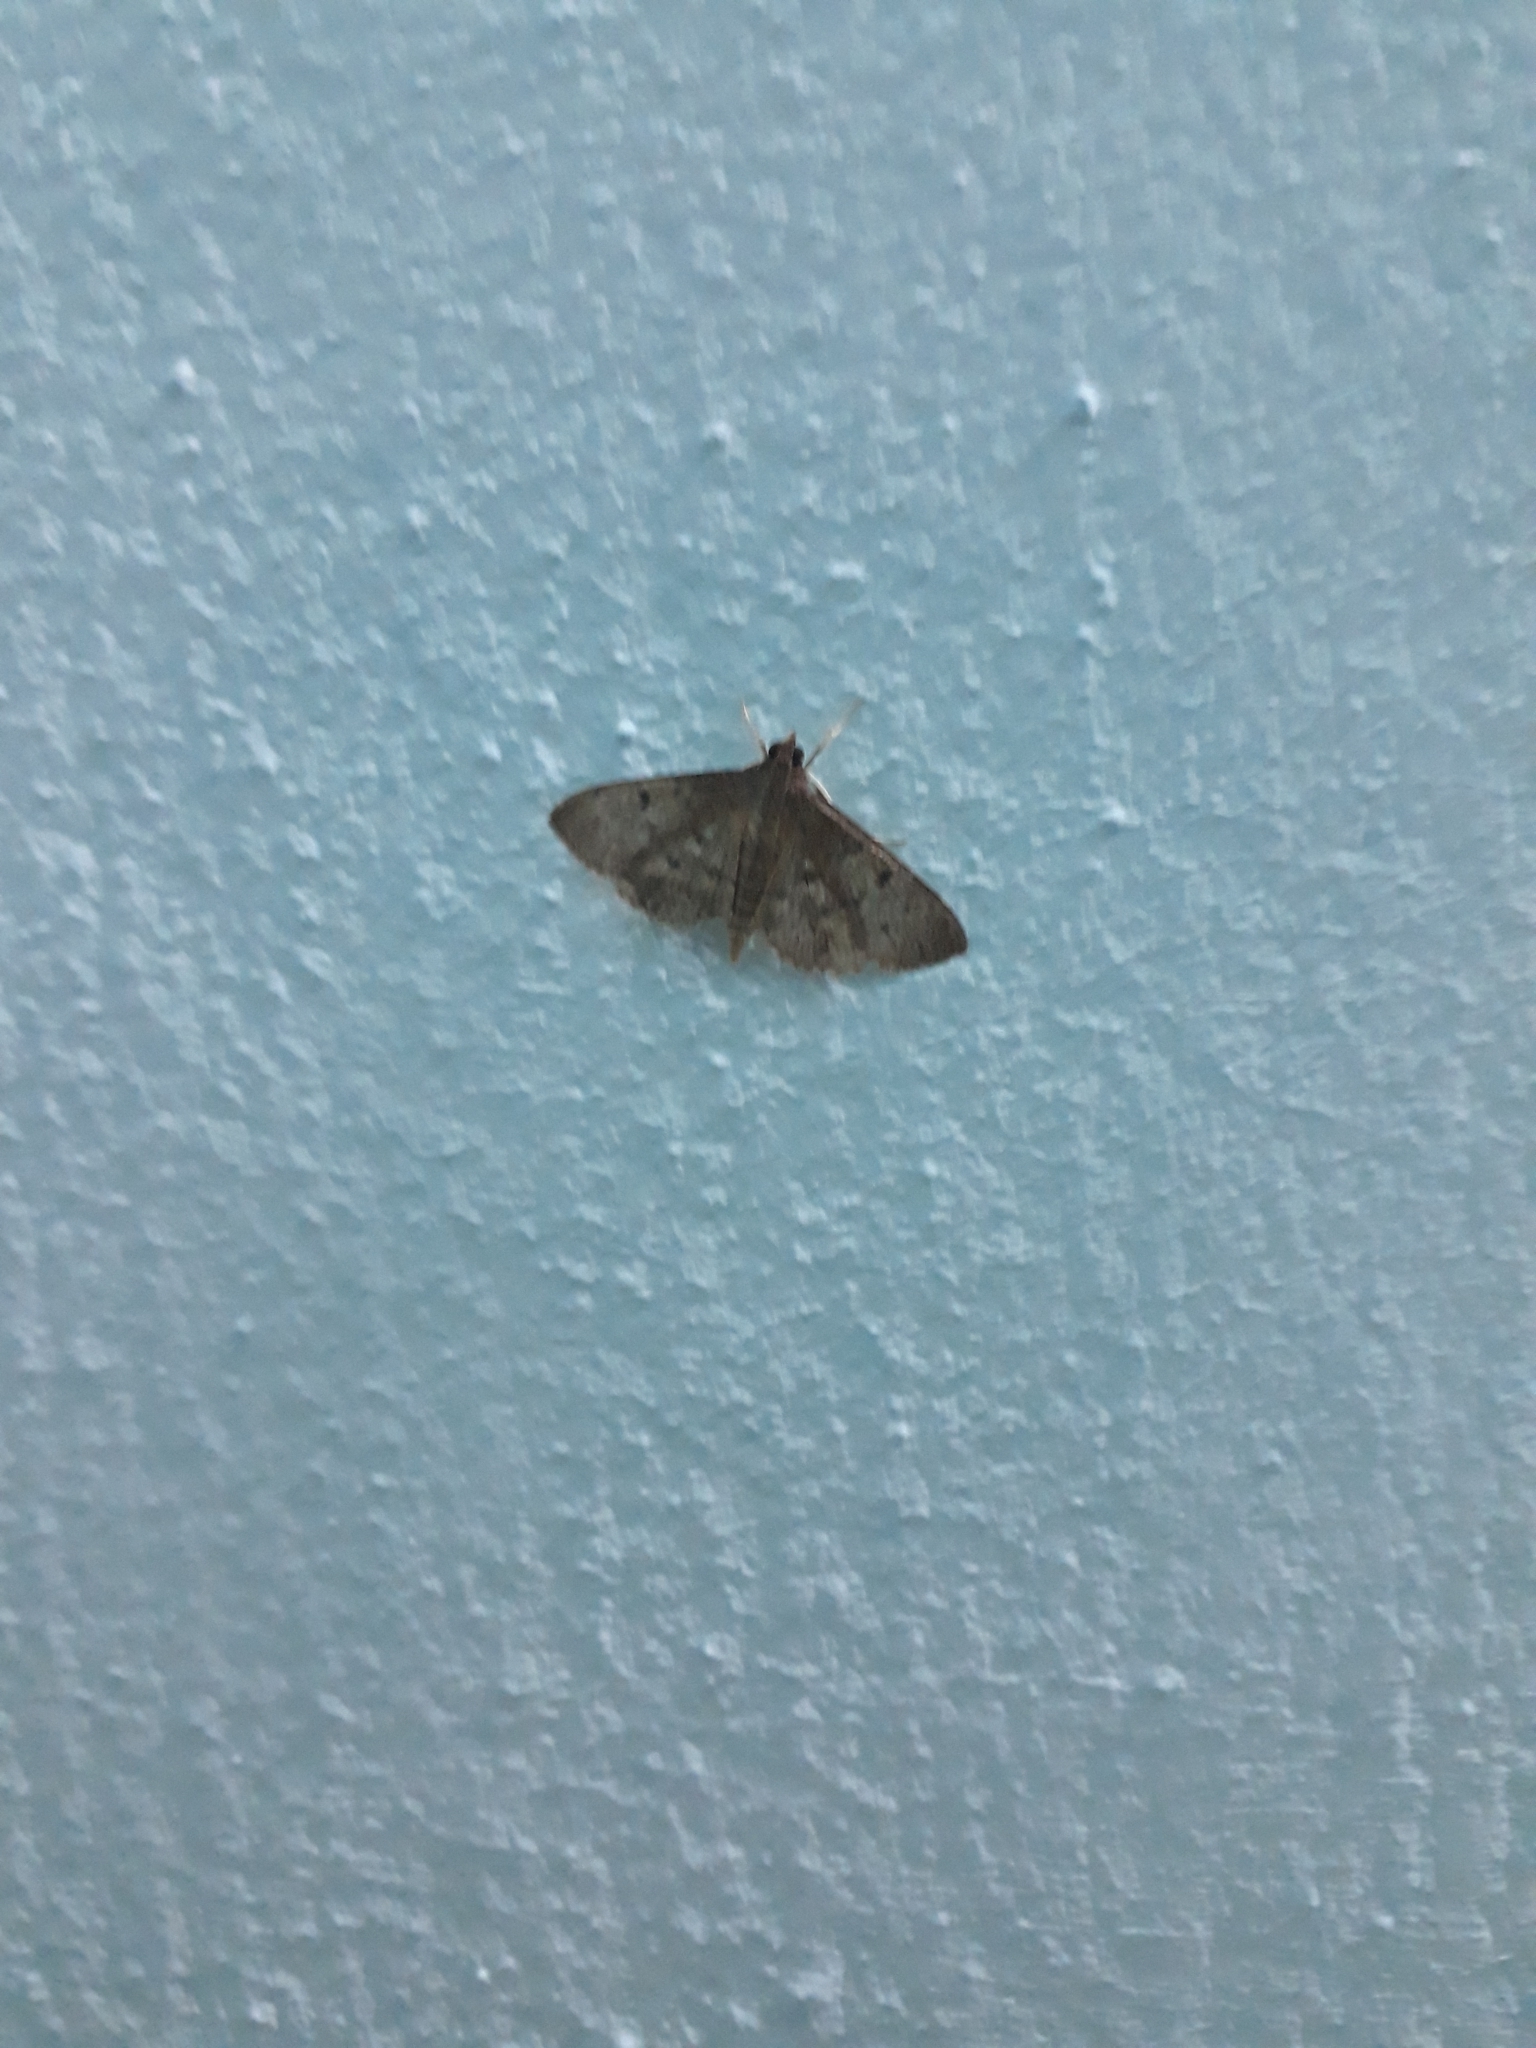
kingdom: Animalia
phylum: Arthropoda
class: Insecta
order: Lepidoptera
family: Crambidae
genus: Herpetogramma
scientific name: Herpetogramma phaeopteralis
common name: Dusky herpetogramma moth
